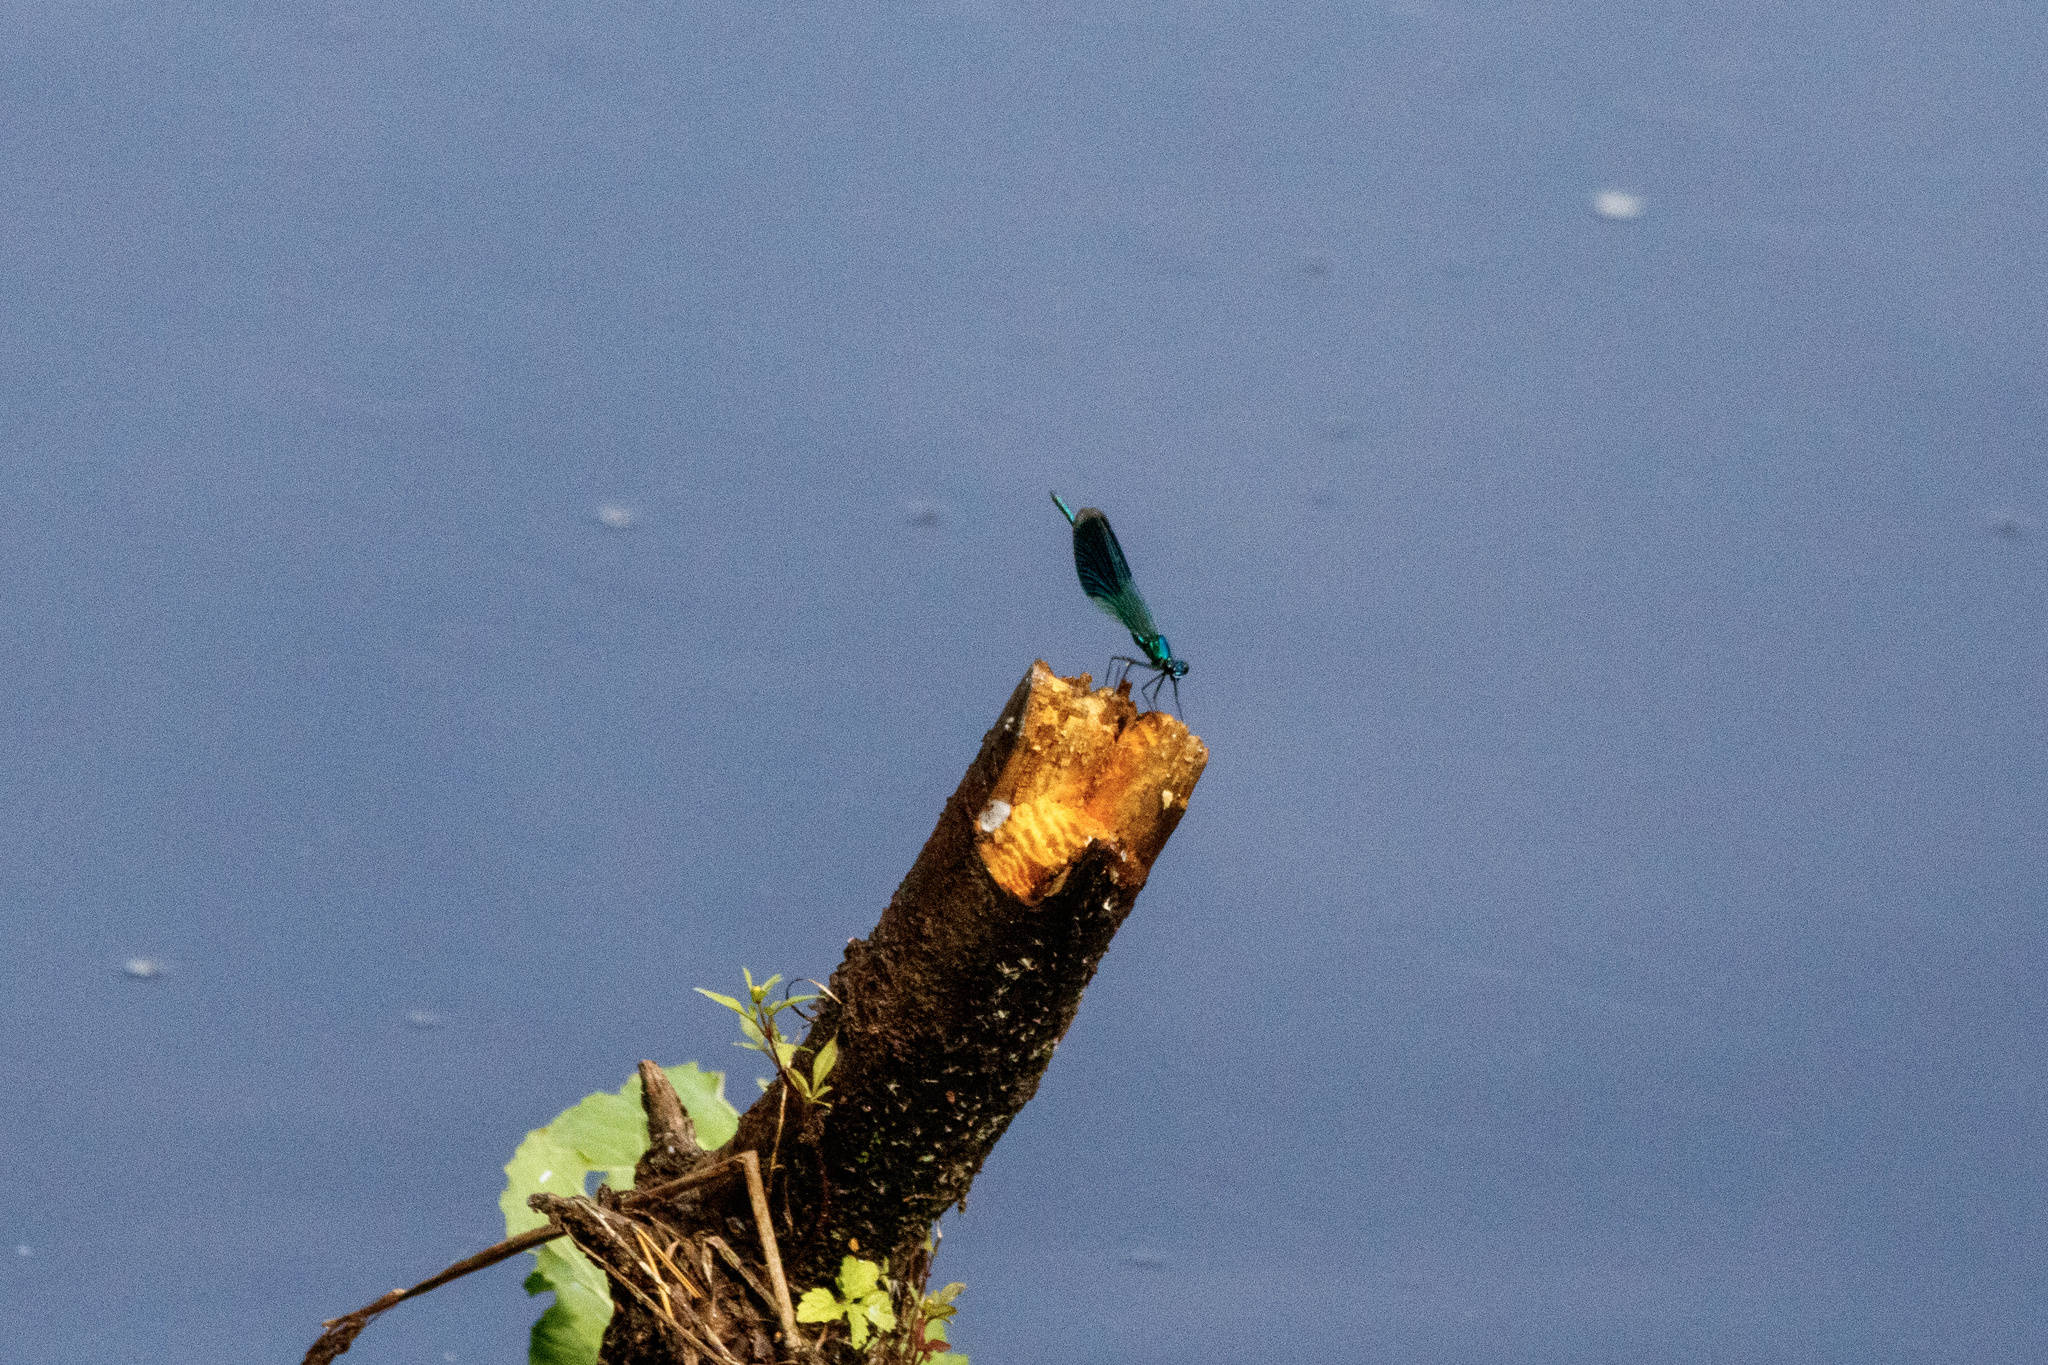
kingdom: Animalia
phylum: Arthropoda
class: Insecta
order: Odonata
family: Calopterygidae
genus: Calopteryx
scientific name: Calopteryx splendens
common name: Banded demoiselle
